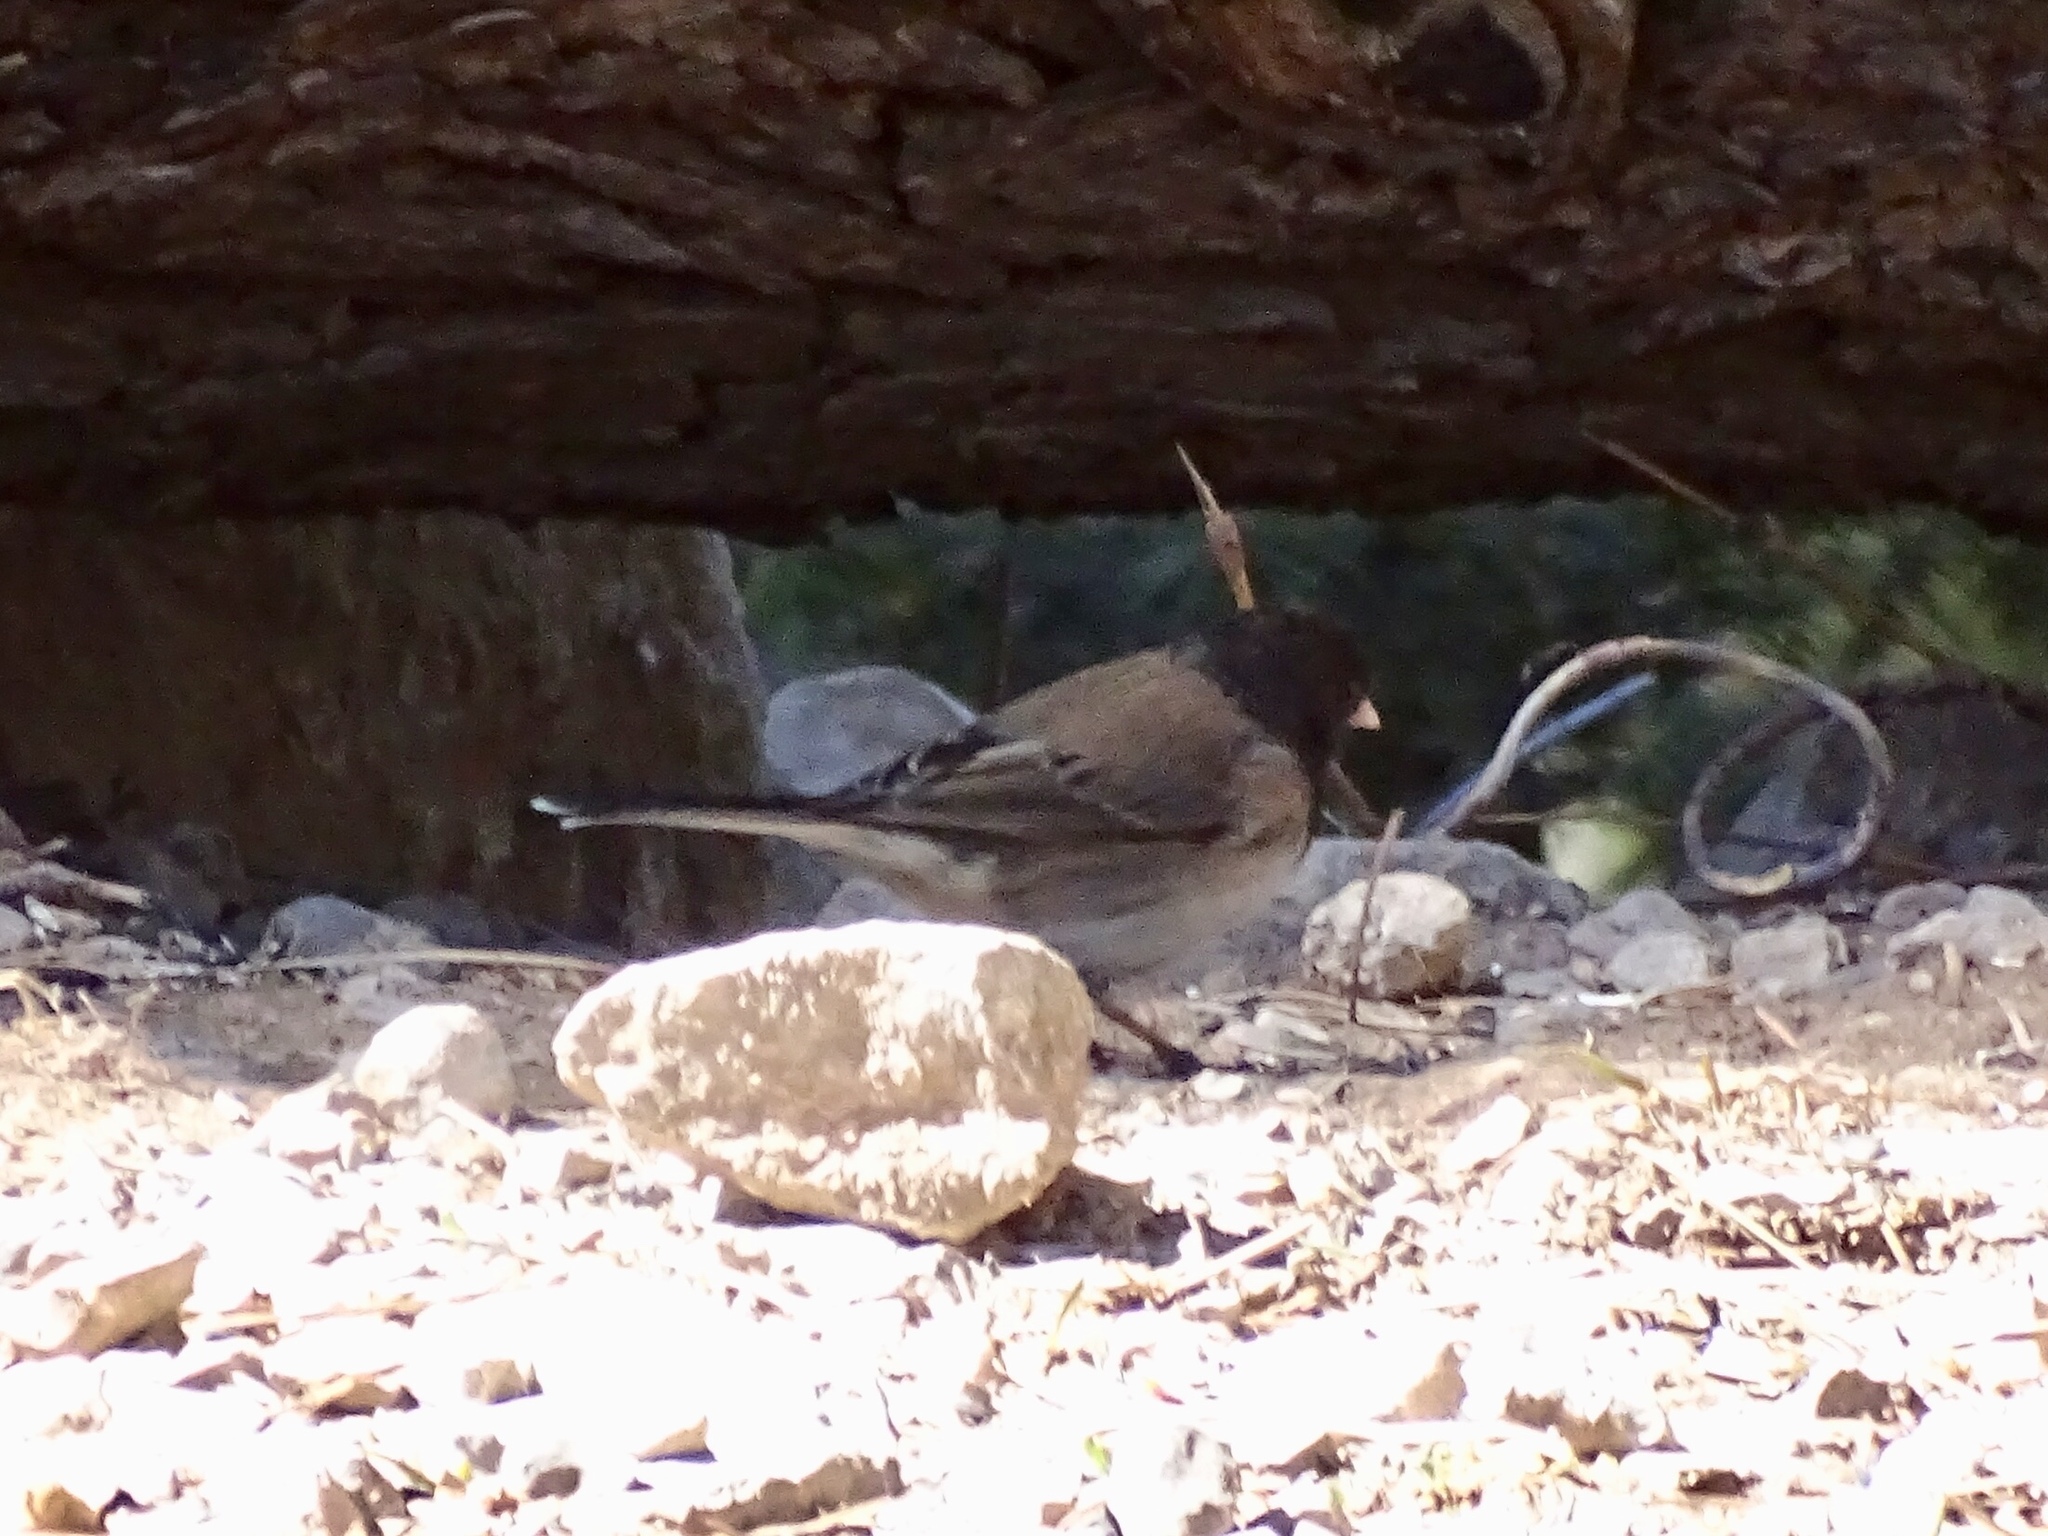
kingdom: Animalia
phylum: Chordata
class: Aves
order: Passeriformes
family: Passerellidae
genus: Junco
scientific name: Junco hyemalis
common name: Dark-eyed junco
